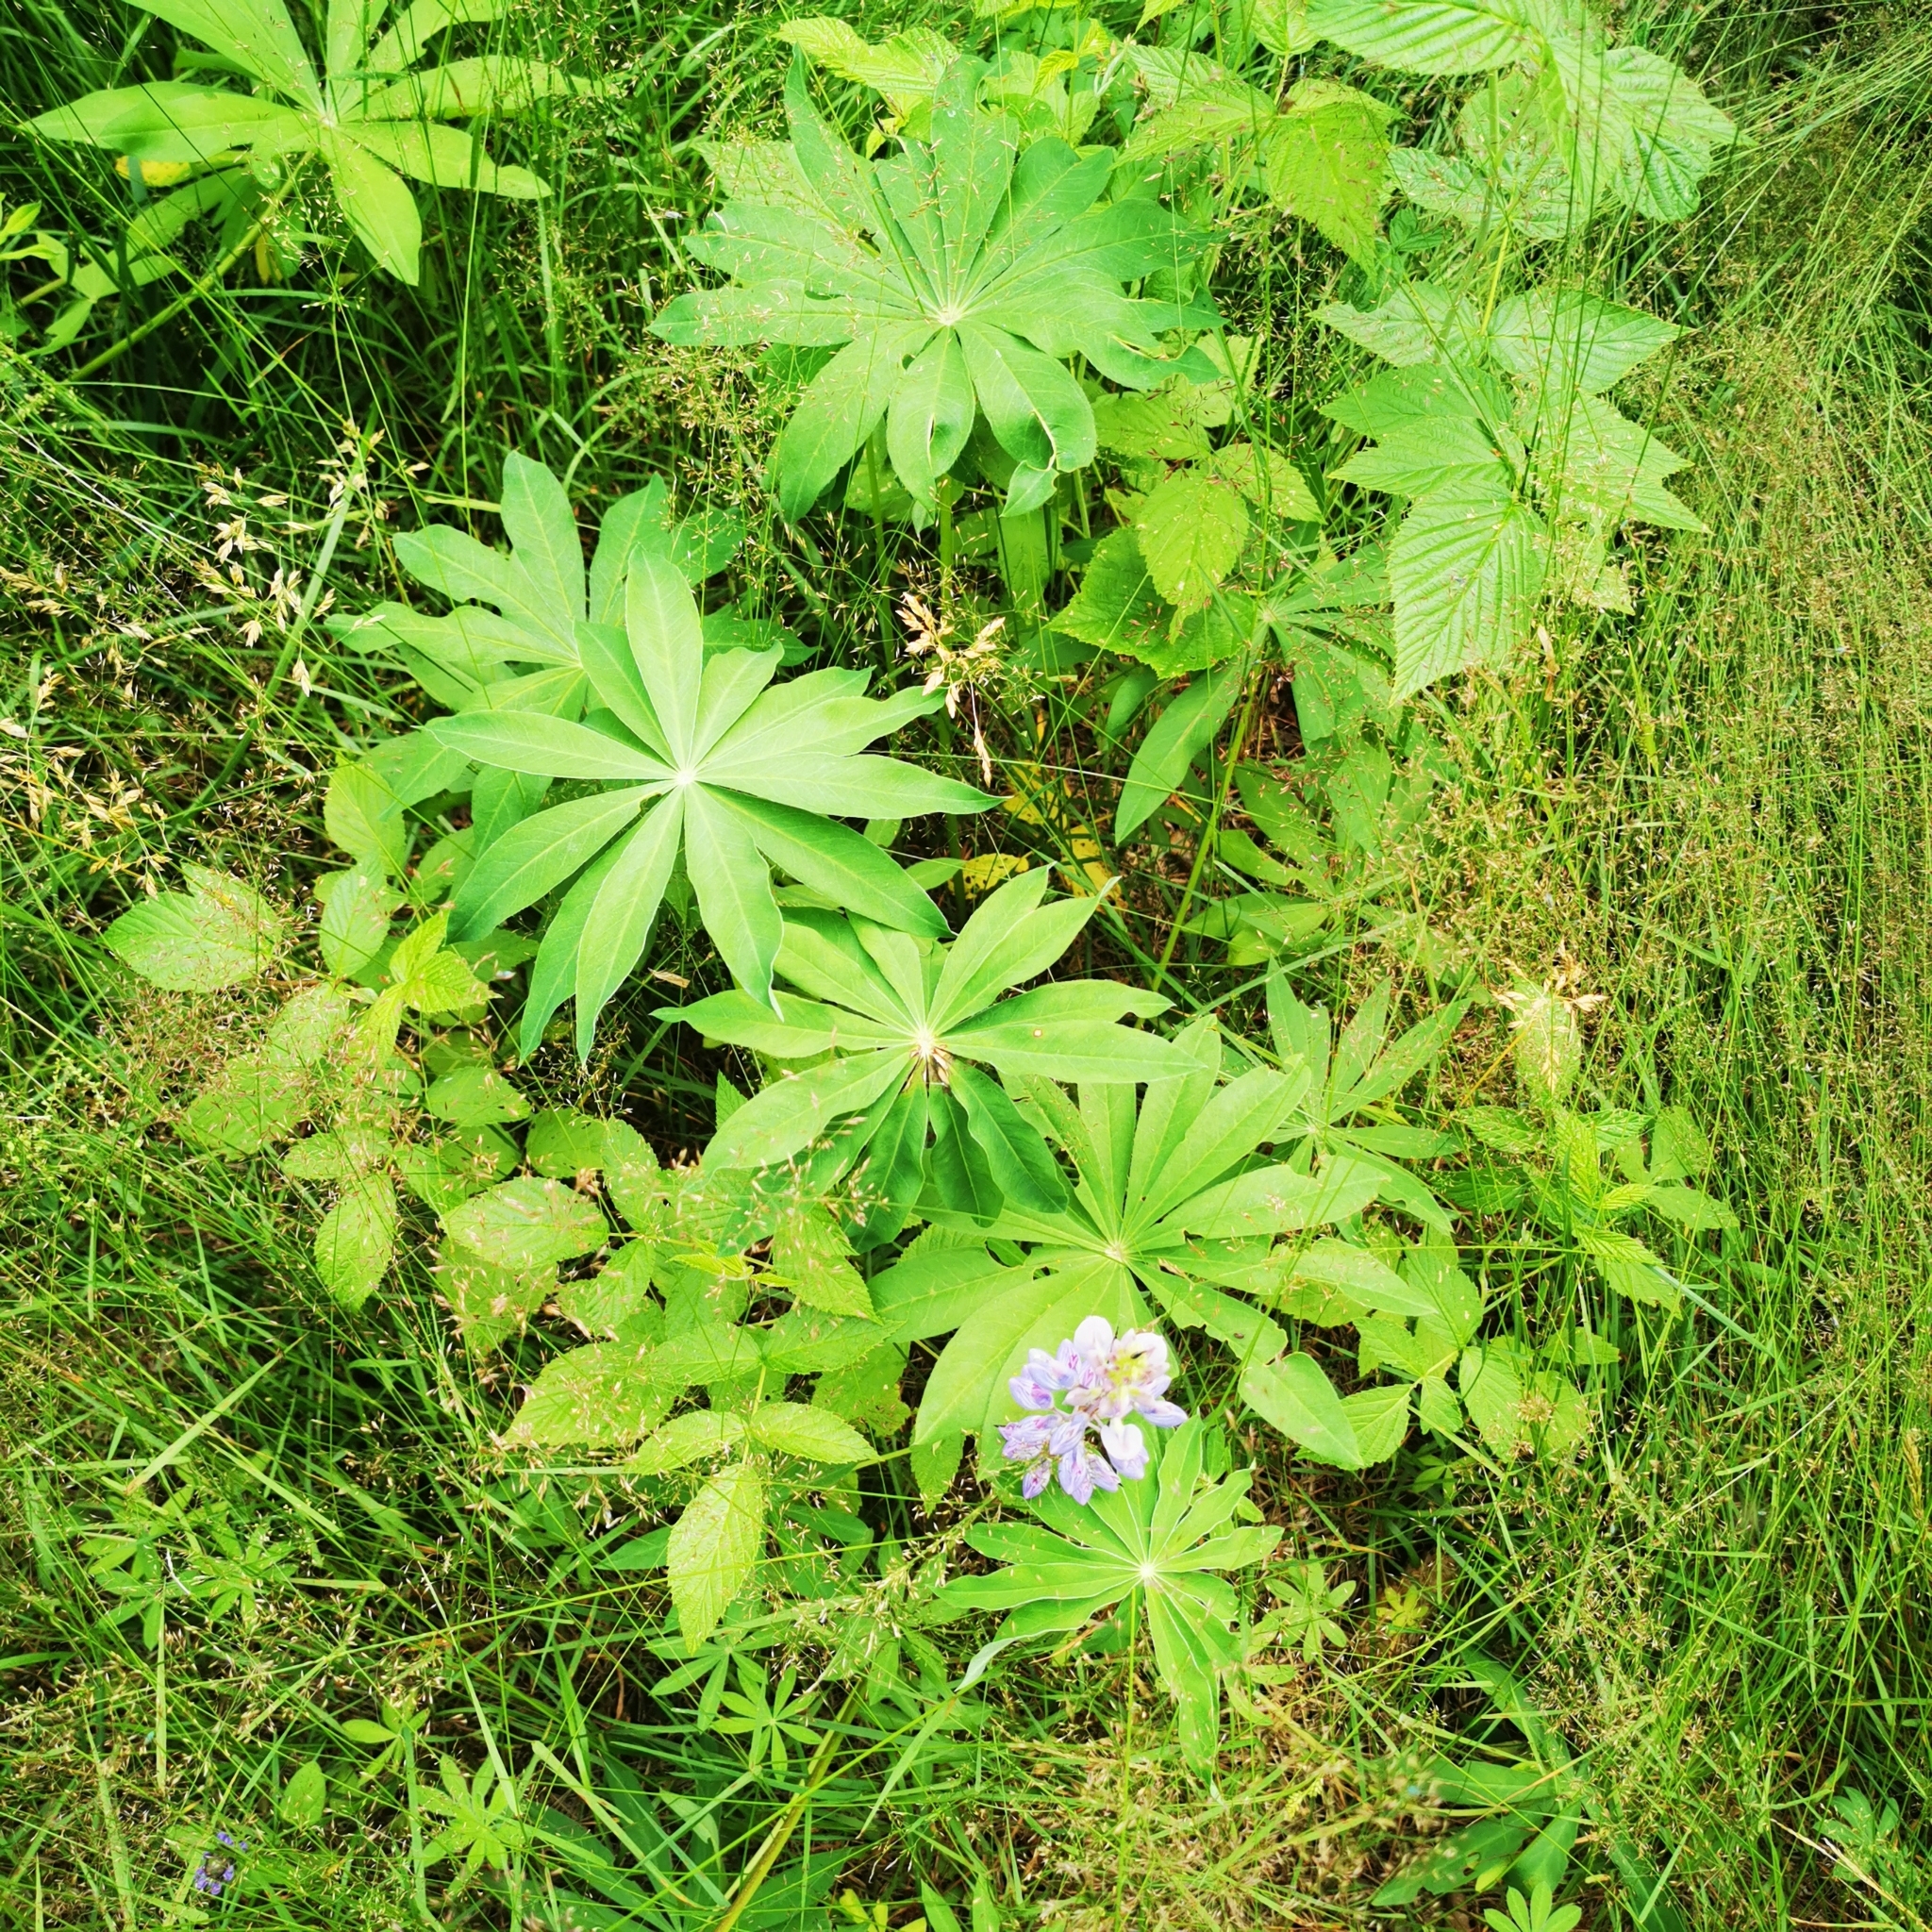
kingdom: Plantae
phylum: Tracheophyta
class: Magnoliopsida
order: Fabales
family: Fabaceae
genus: Lupinus
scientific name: Lupinus polyphyllus
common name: Garden lupin
